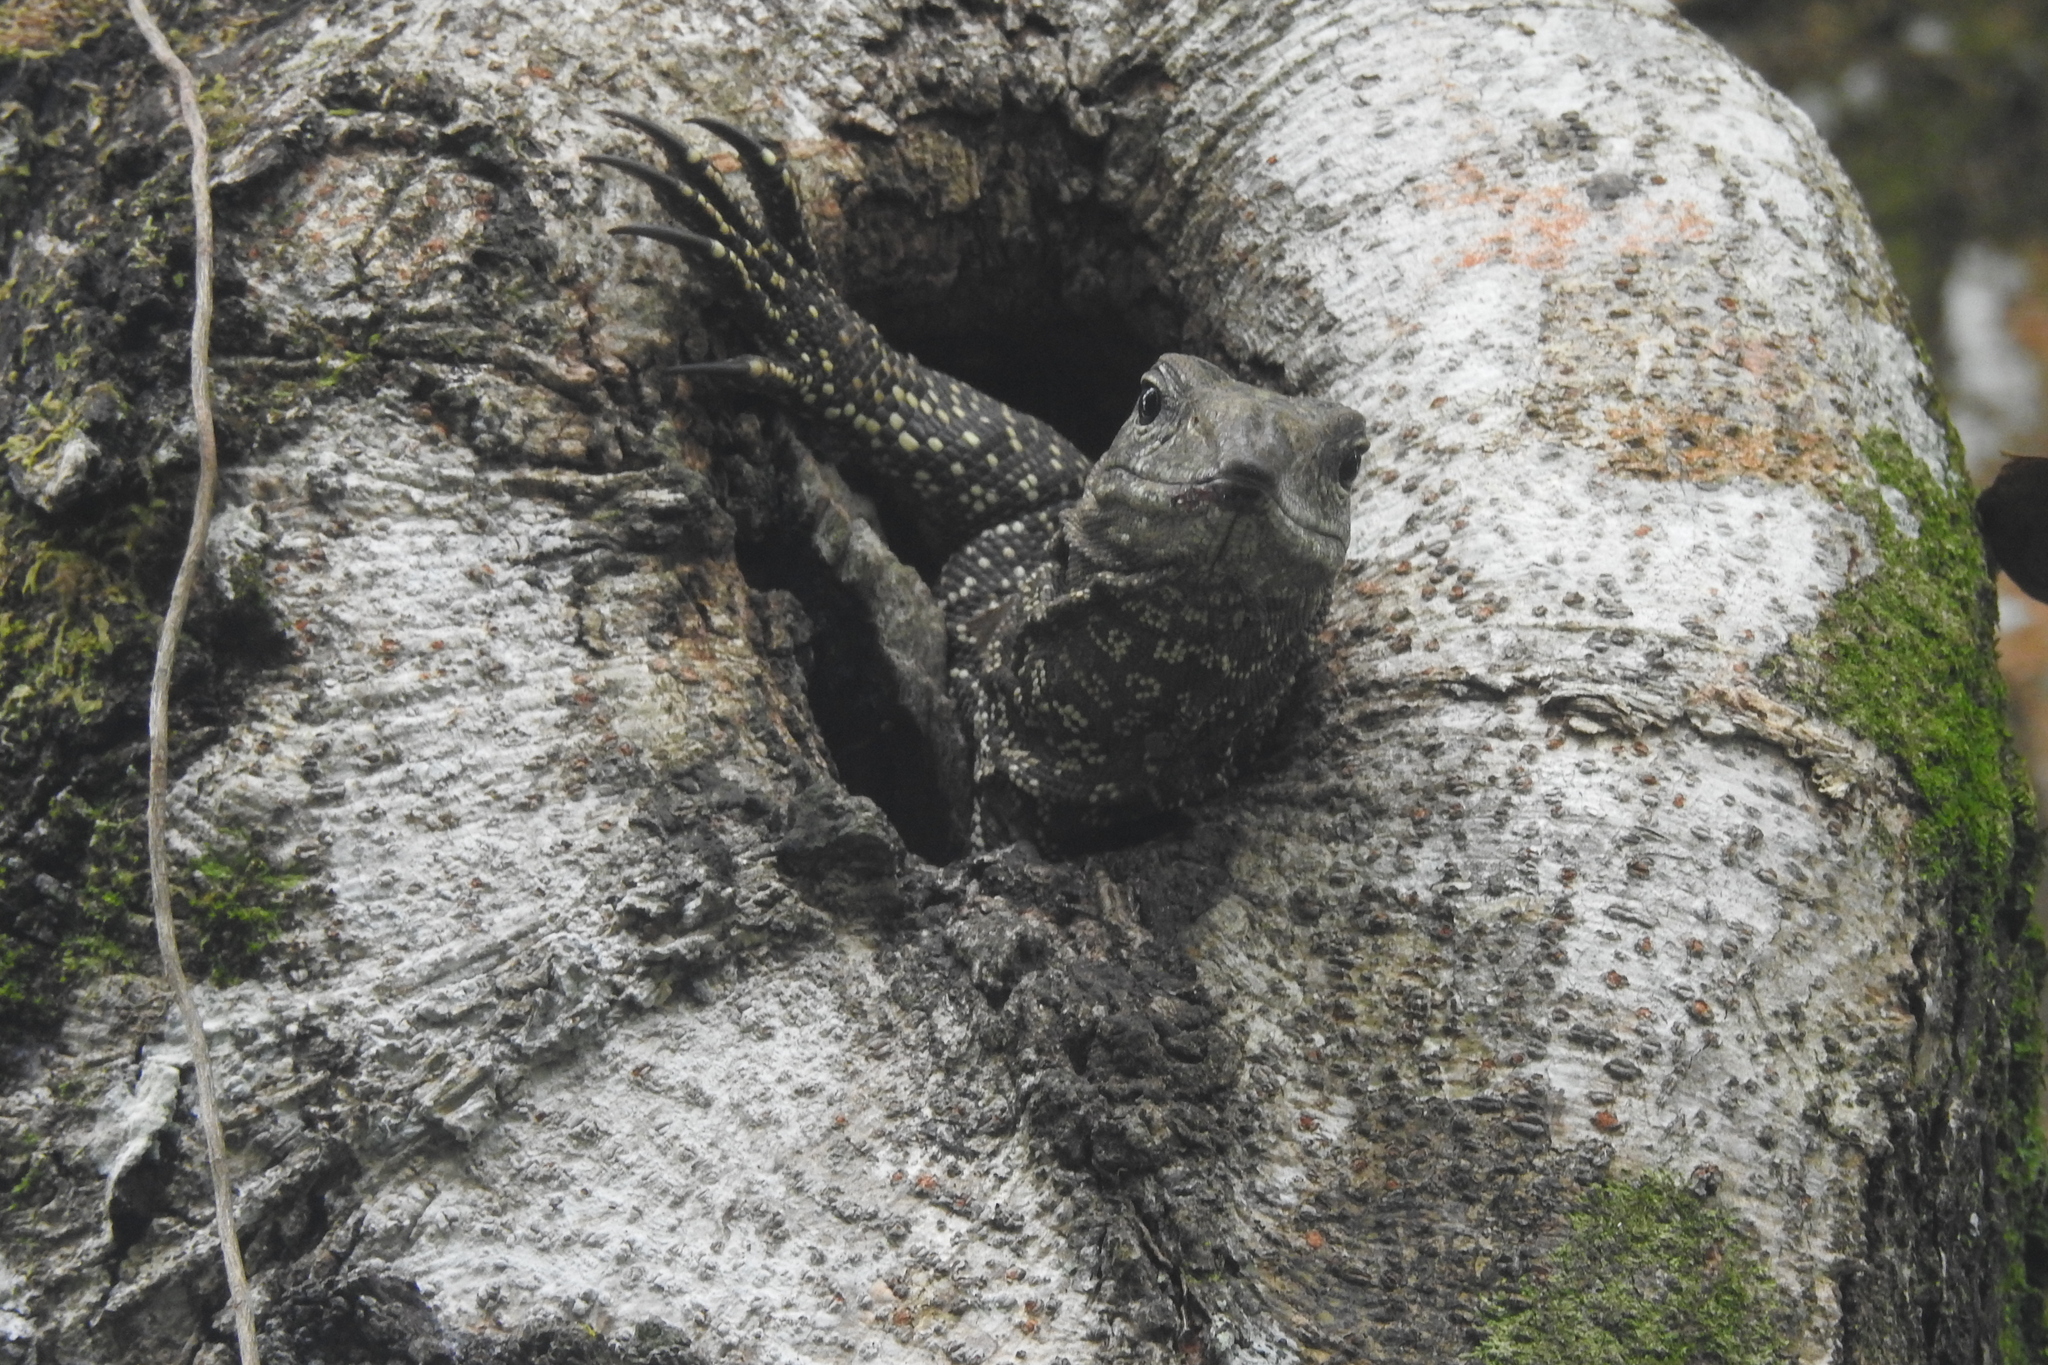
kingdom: Animalia
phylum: Chordata
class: Squamata
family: Varanidae
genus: Varanus
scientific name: Varanus nebulosus
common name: Clouded monitor
